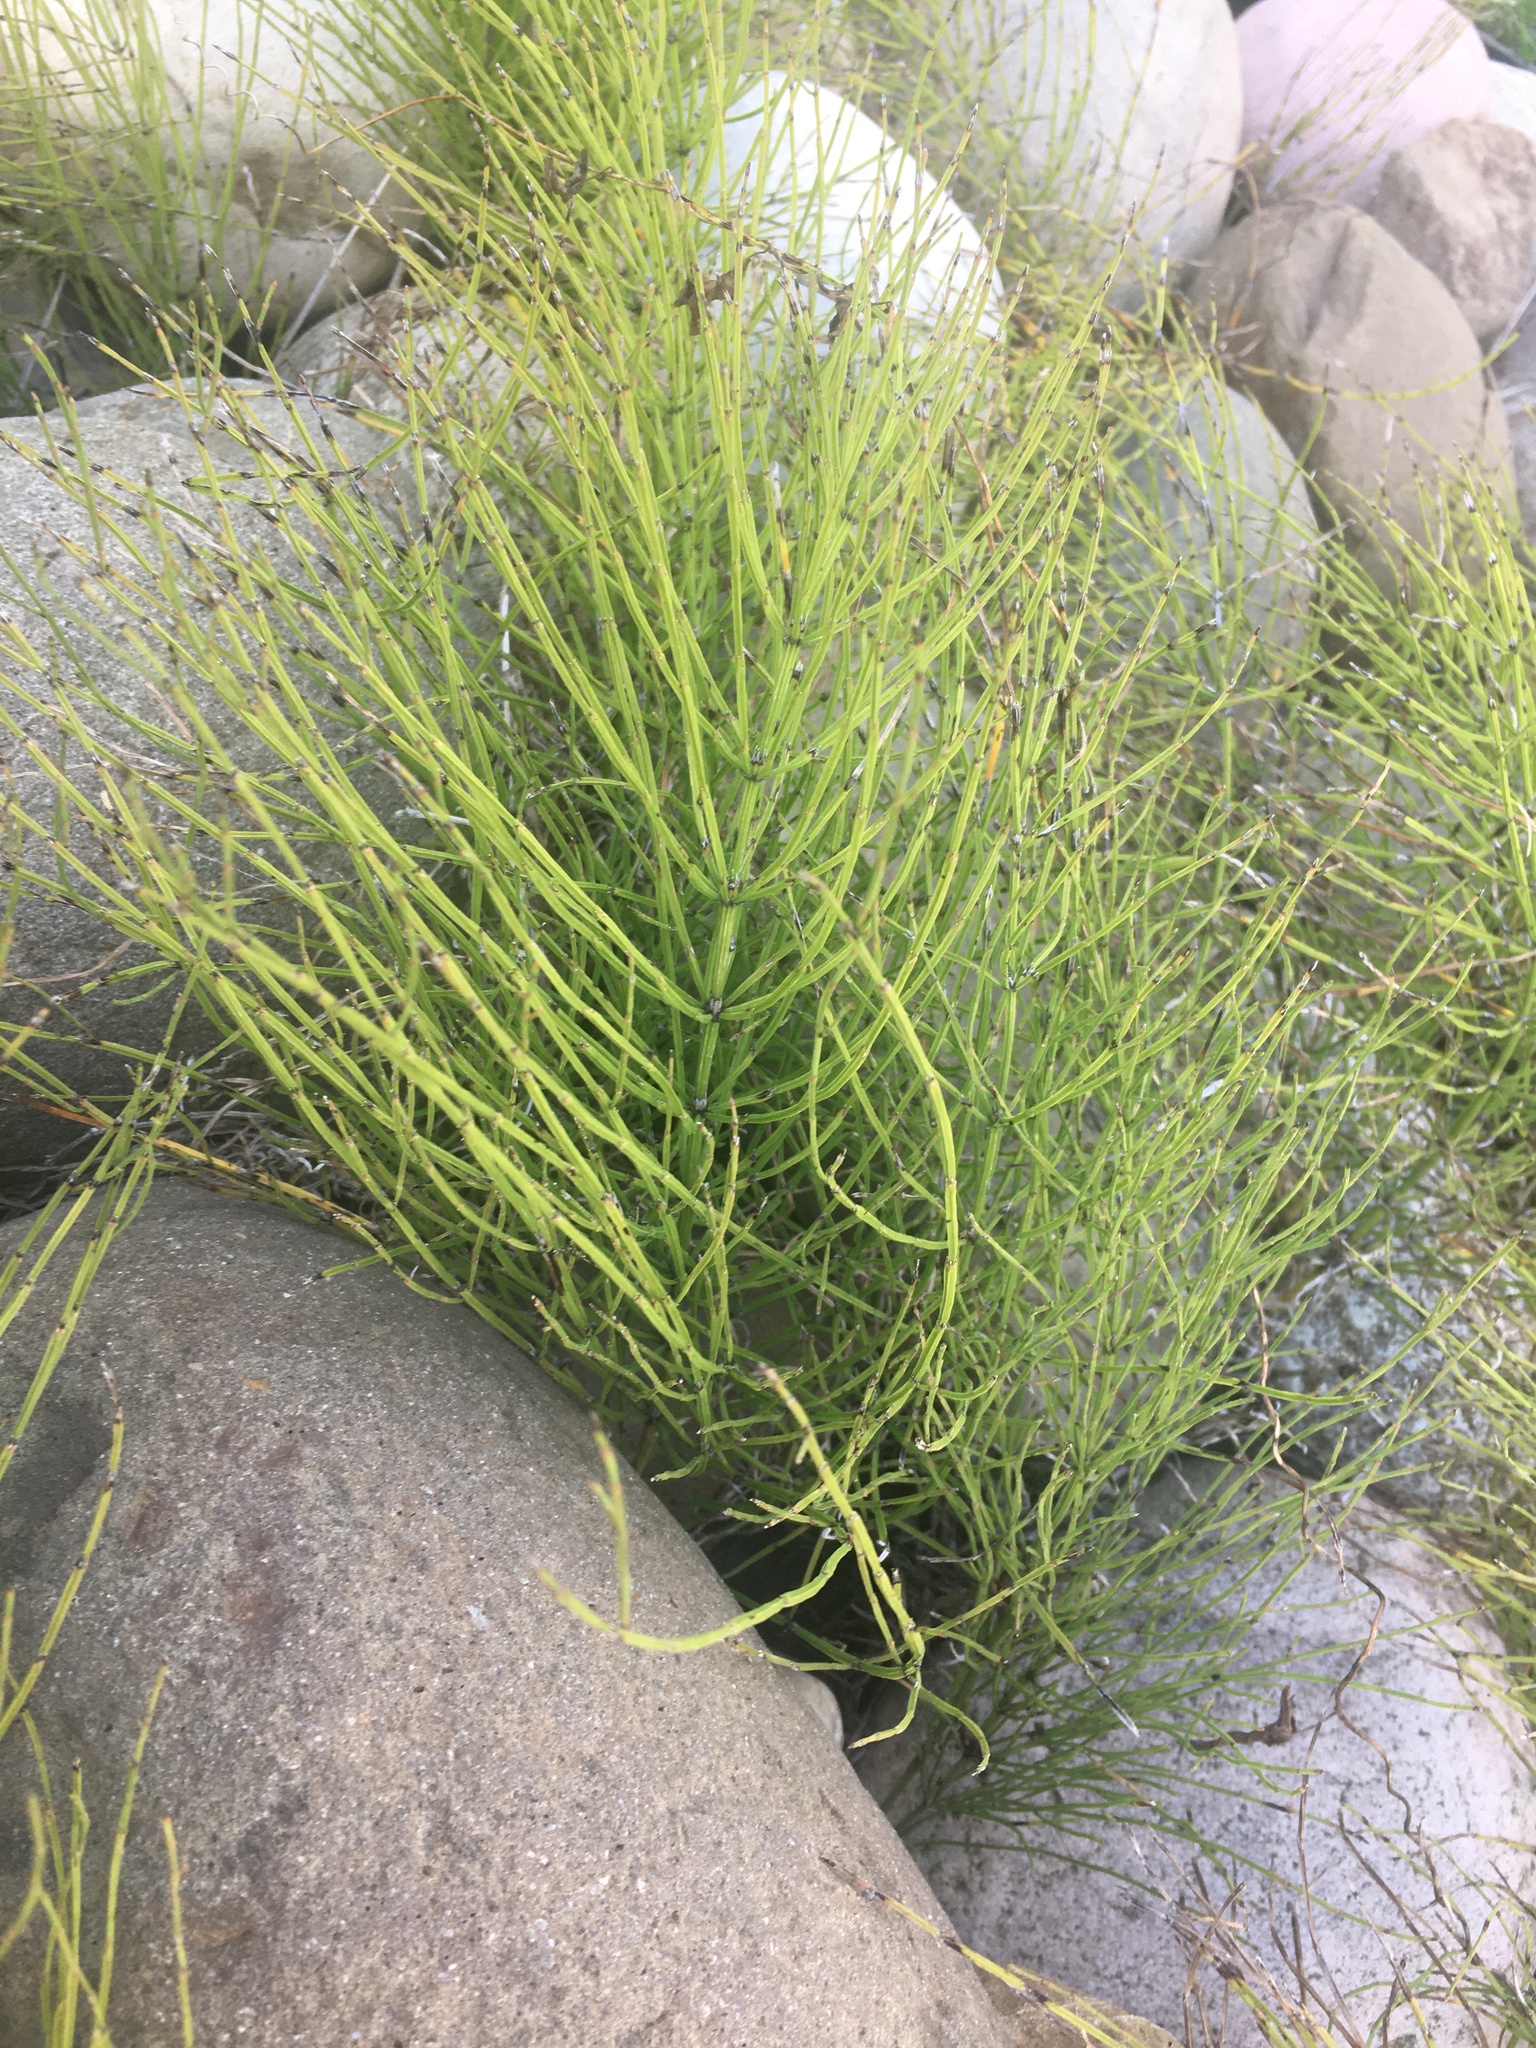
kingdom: Plantae
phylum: Tracheophyta
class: Polypodiopsida
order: Equisetales
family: Equisetaceae
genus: Equisetum
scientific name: Equisetum arvense
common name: Field horsetail
